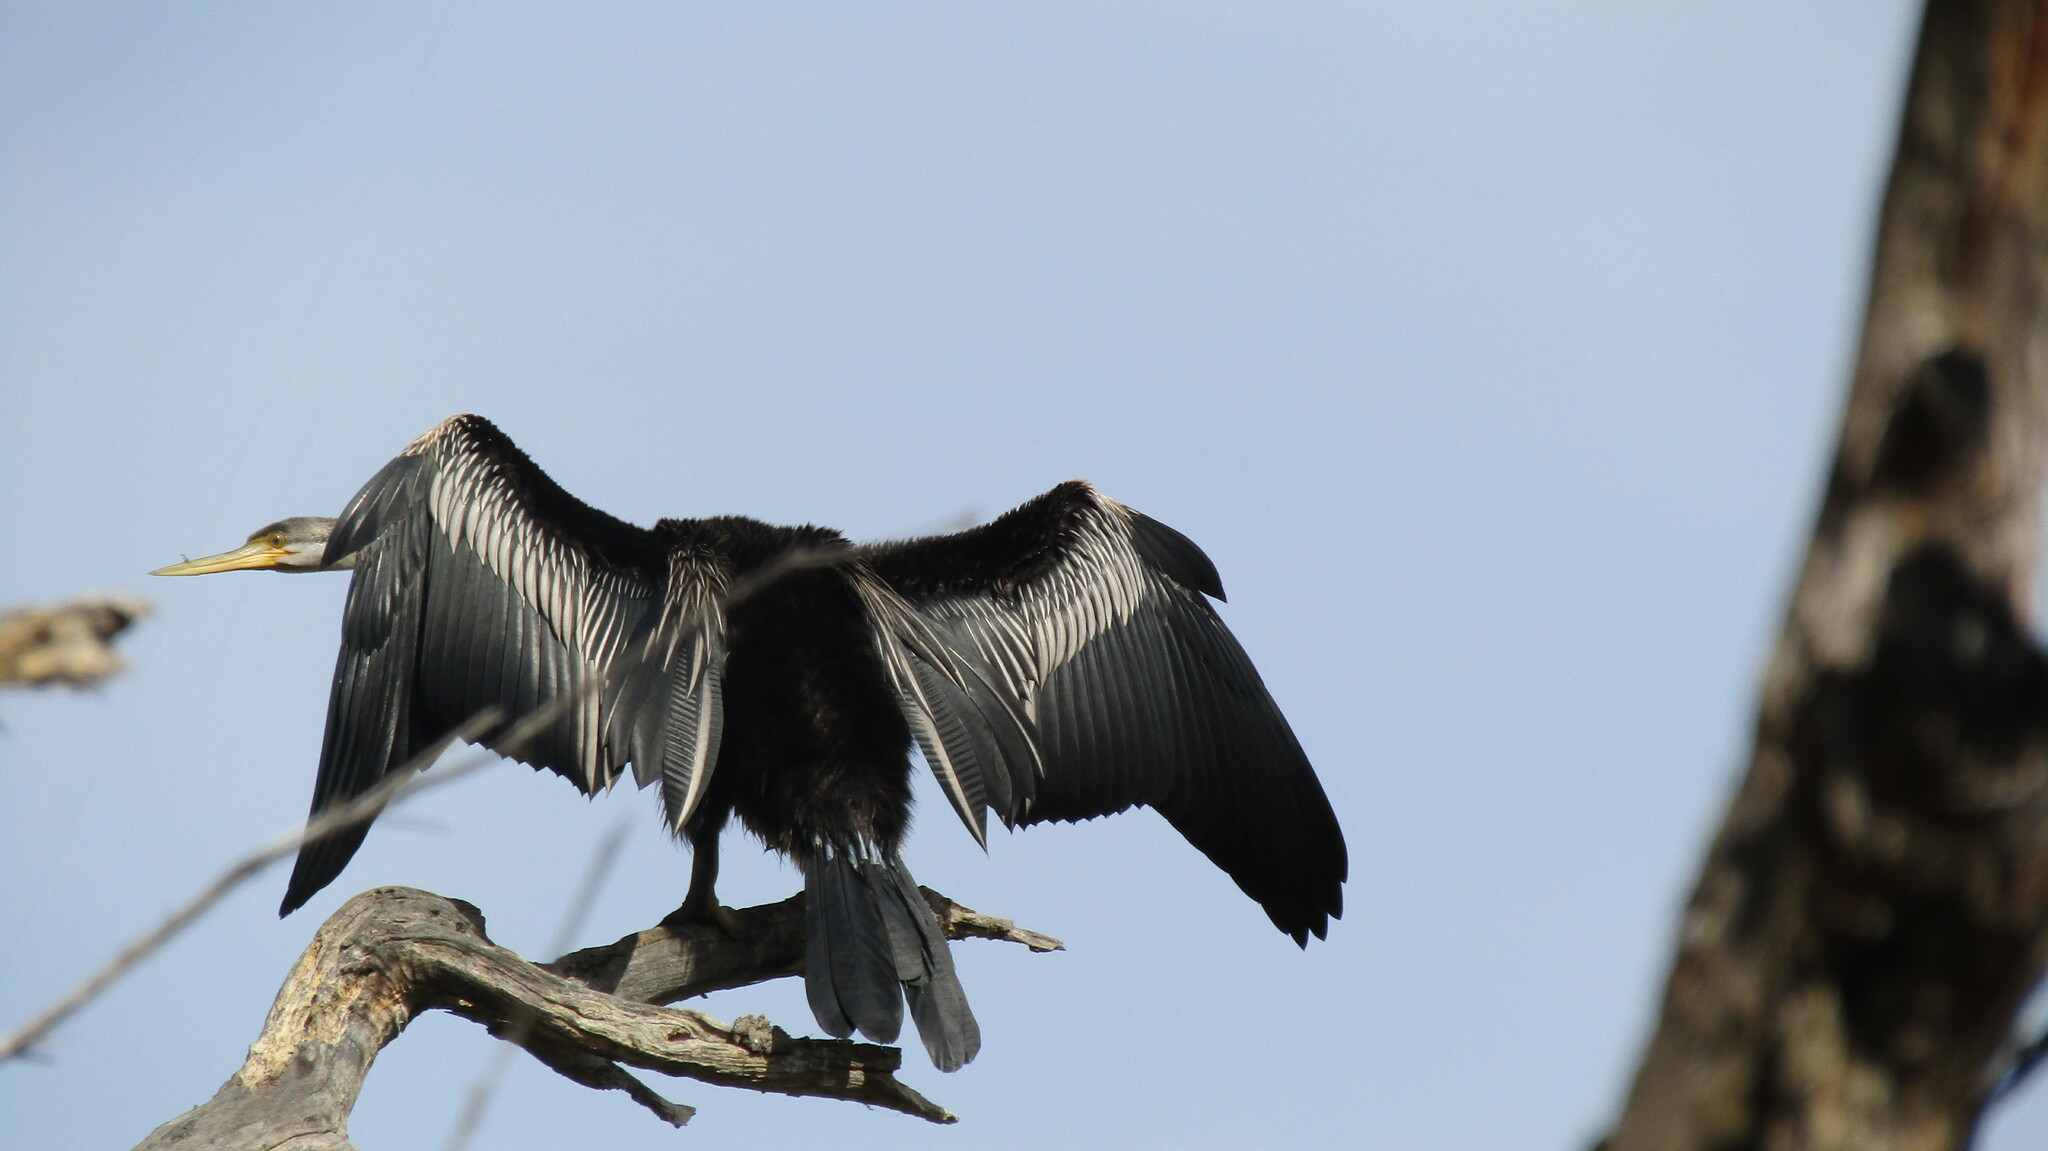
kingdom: Animalia
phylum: Chordata
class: Aves
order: Suliformes
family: Anhingidae
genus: Anhinga
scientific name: Anhinga novaehollandiae
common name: Australasian darter
